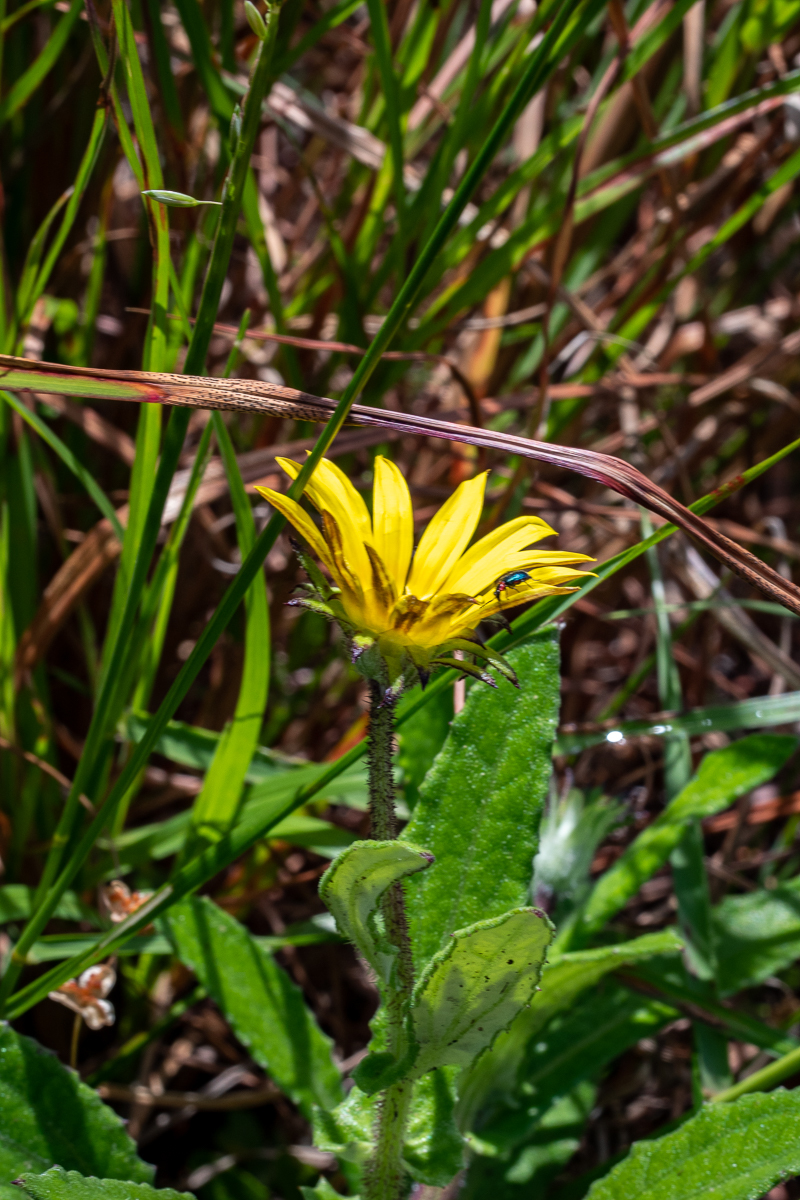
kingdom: Plantae
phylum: Tracheophyta
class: Magnoliopsida
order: Asterales
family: Asteraceae
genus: Arctotis
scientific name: Arctotis scabra
